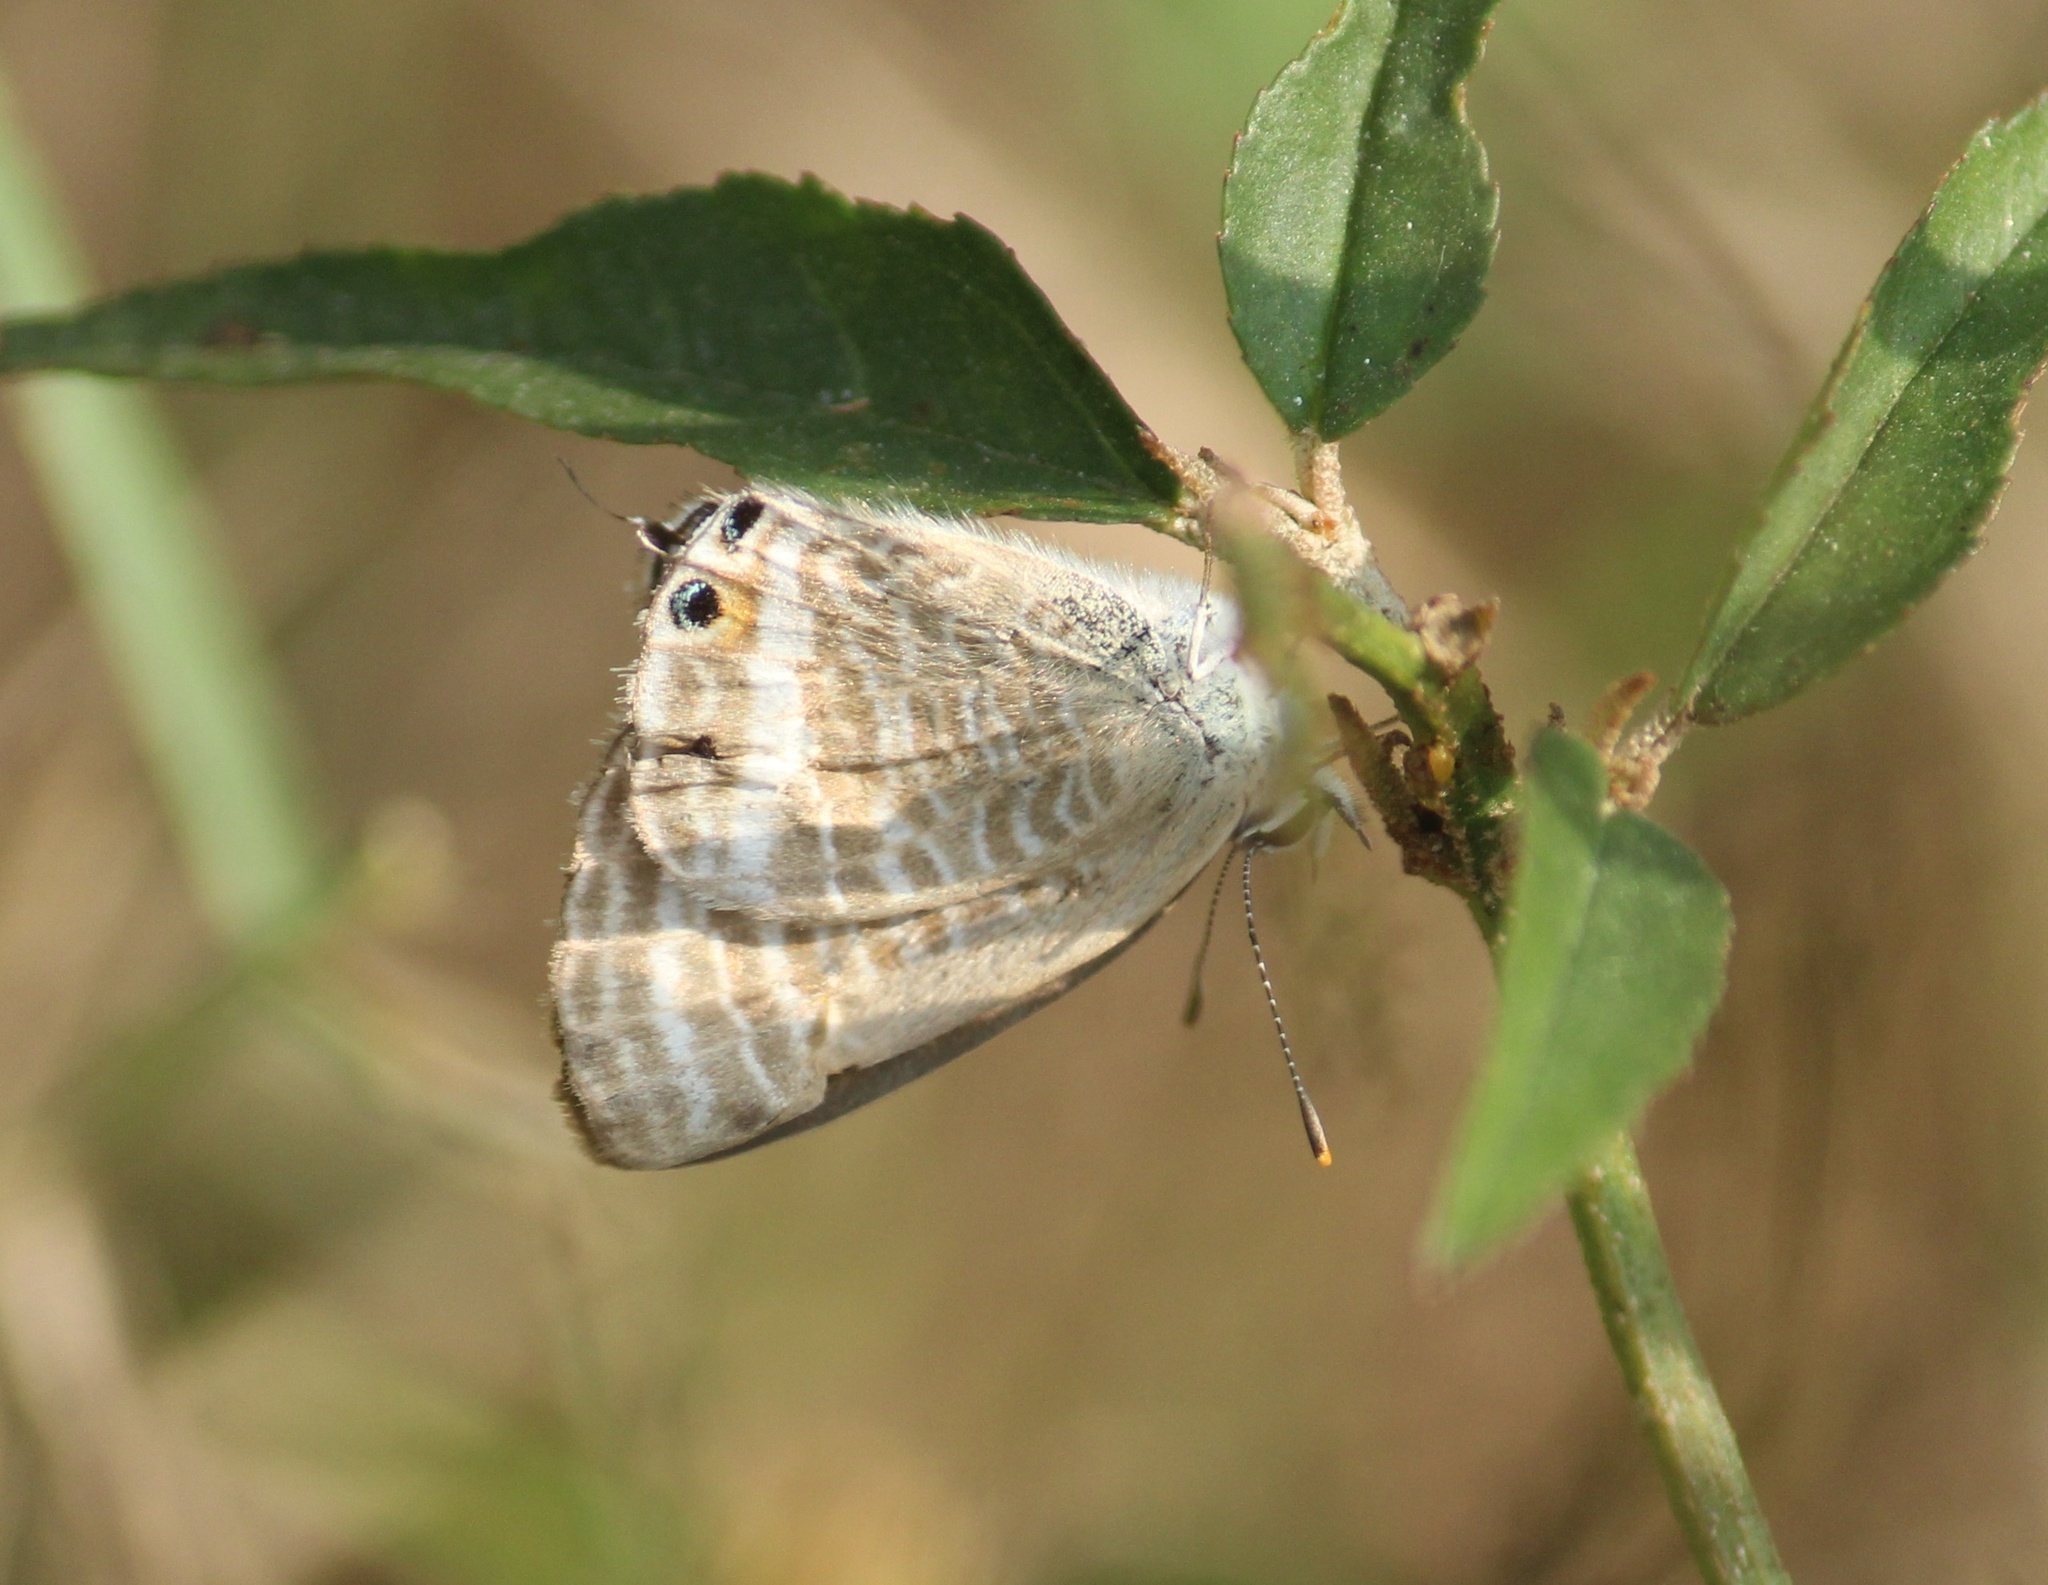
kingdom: Animalia
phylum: Arthropoda
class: Insecta
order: Lepidoptera
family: Lycaenidae
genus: Lampides
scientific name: Lampides boeticus
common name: Long-tailed blue
